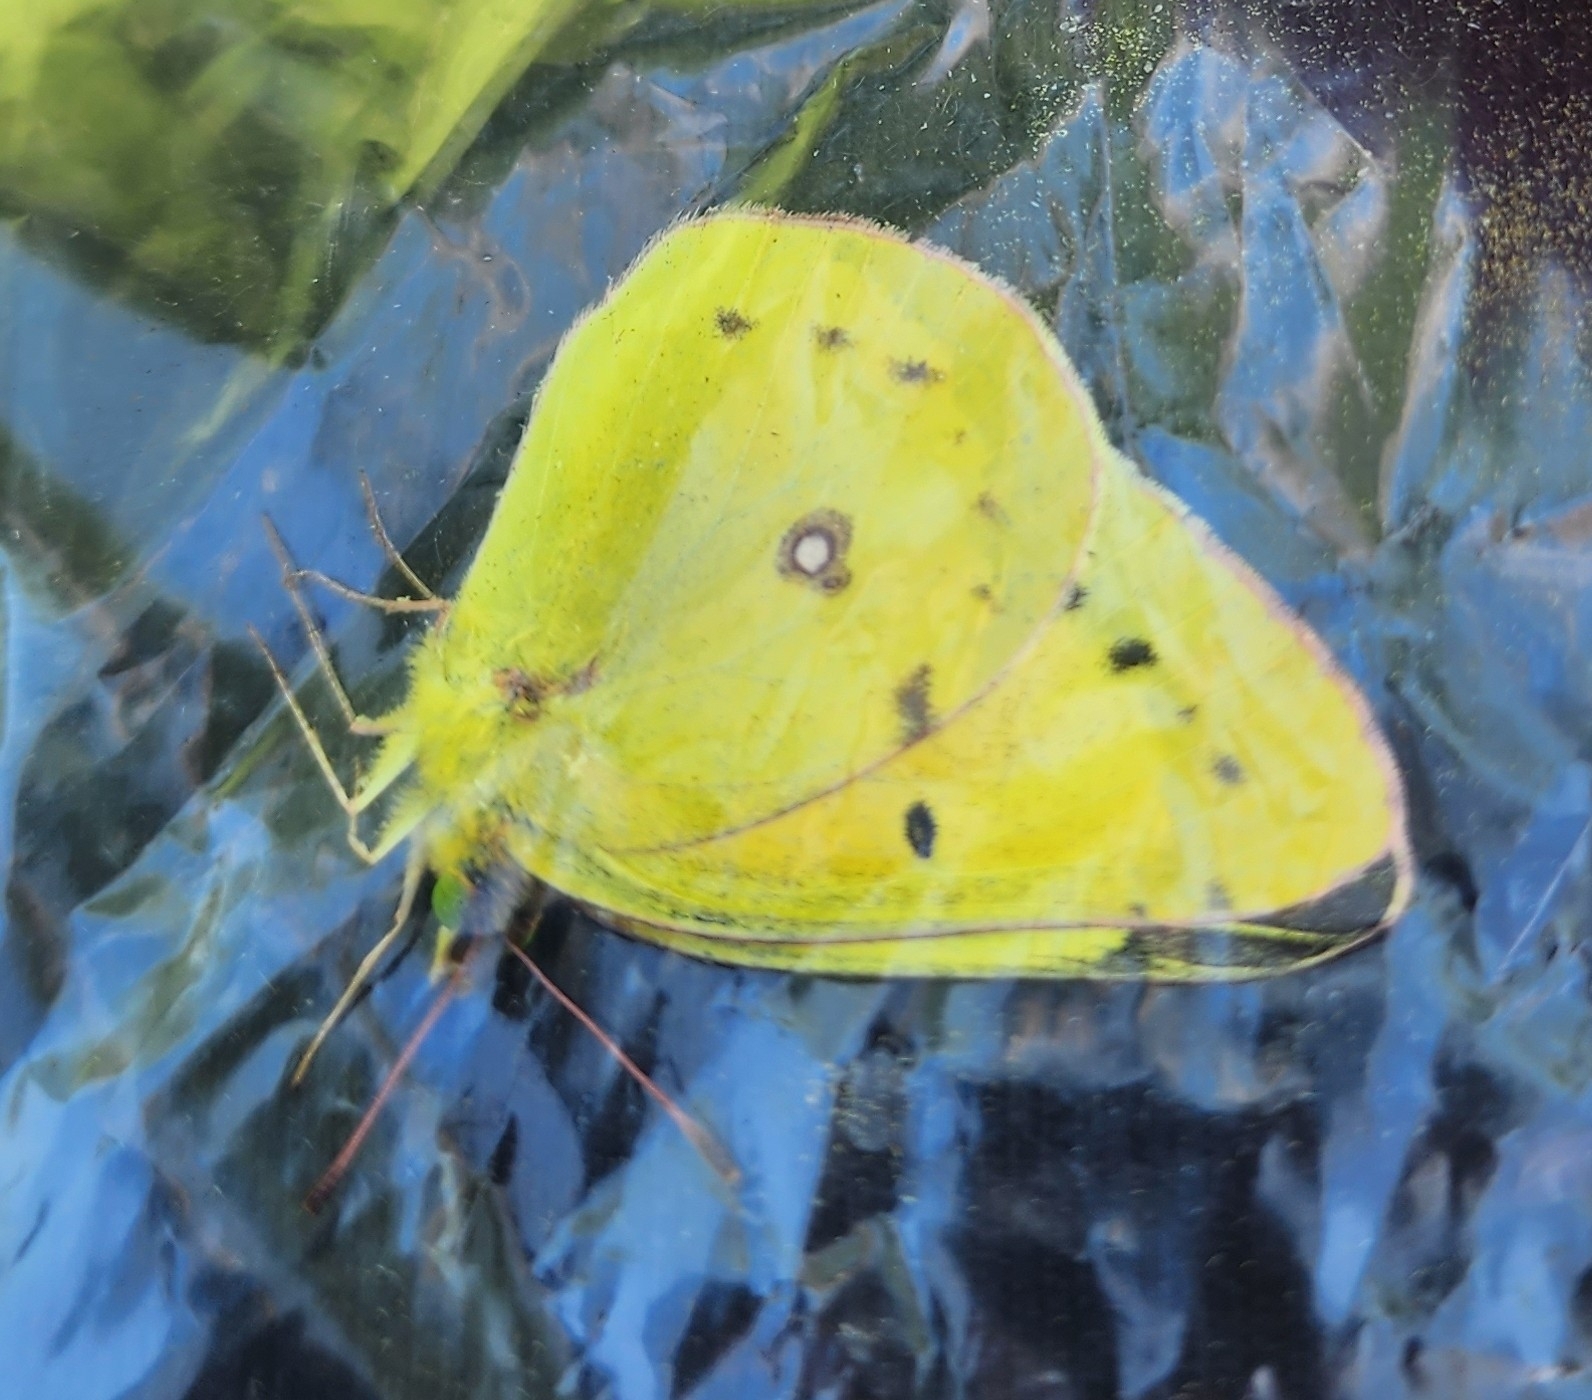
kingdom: Animalia
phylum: Arthropoda
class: Insecta
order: Lepidoptera
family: Pieridae
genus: Colias
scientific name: Colias eurytheme
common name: Alfalfa butterfly
